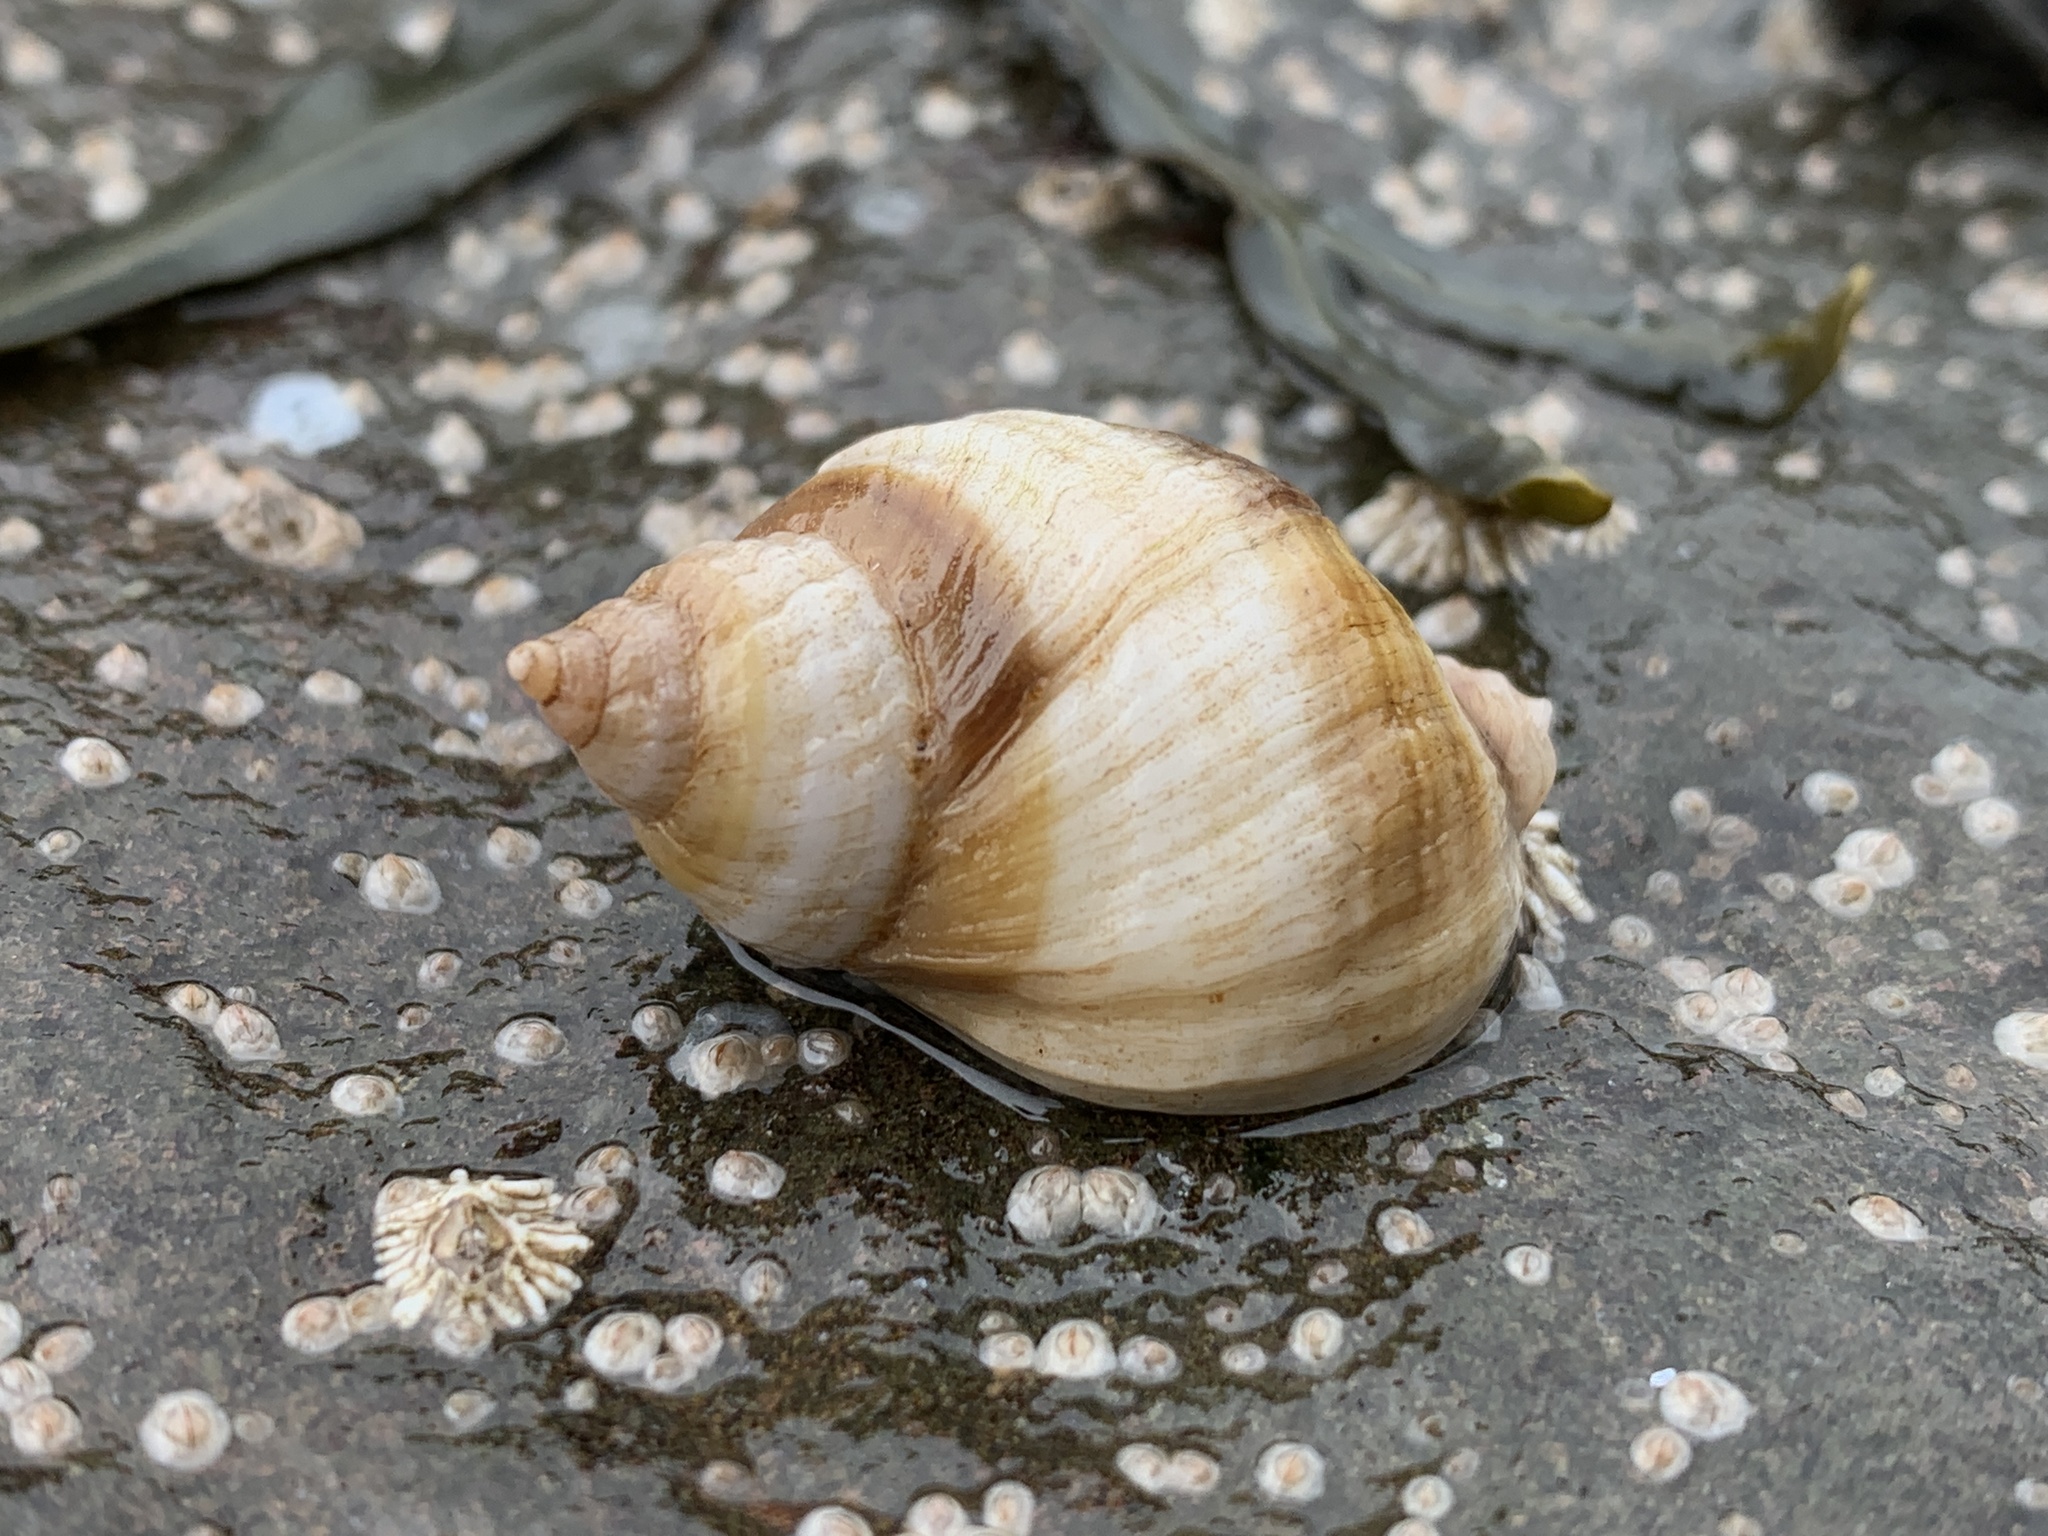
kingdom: Animalia
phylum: Mollusca
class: Gastropoda
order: Neogastropoda
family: Muricidae
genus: Nucella
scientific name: Nucella lapillus
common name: Dog whelk
